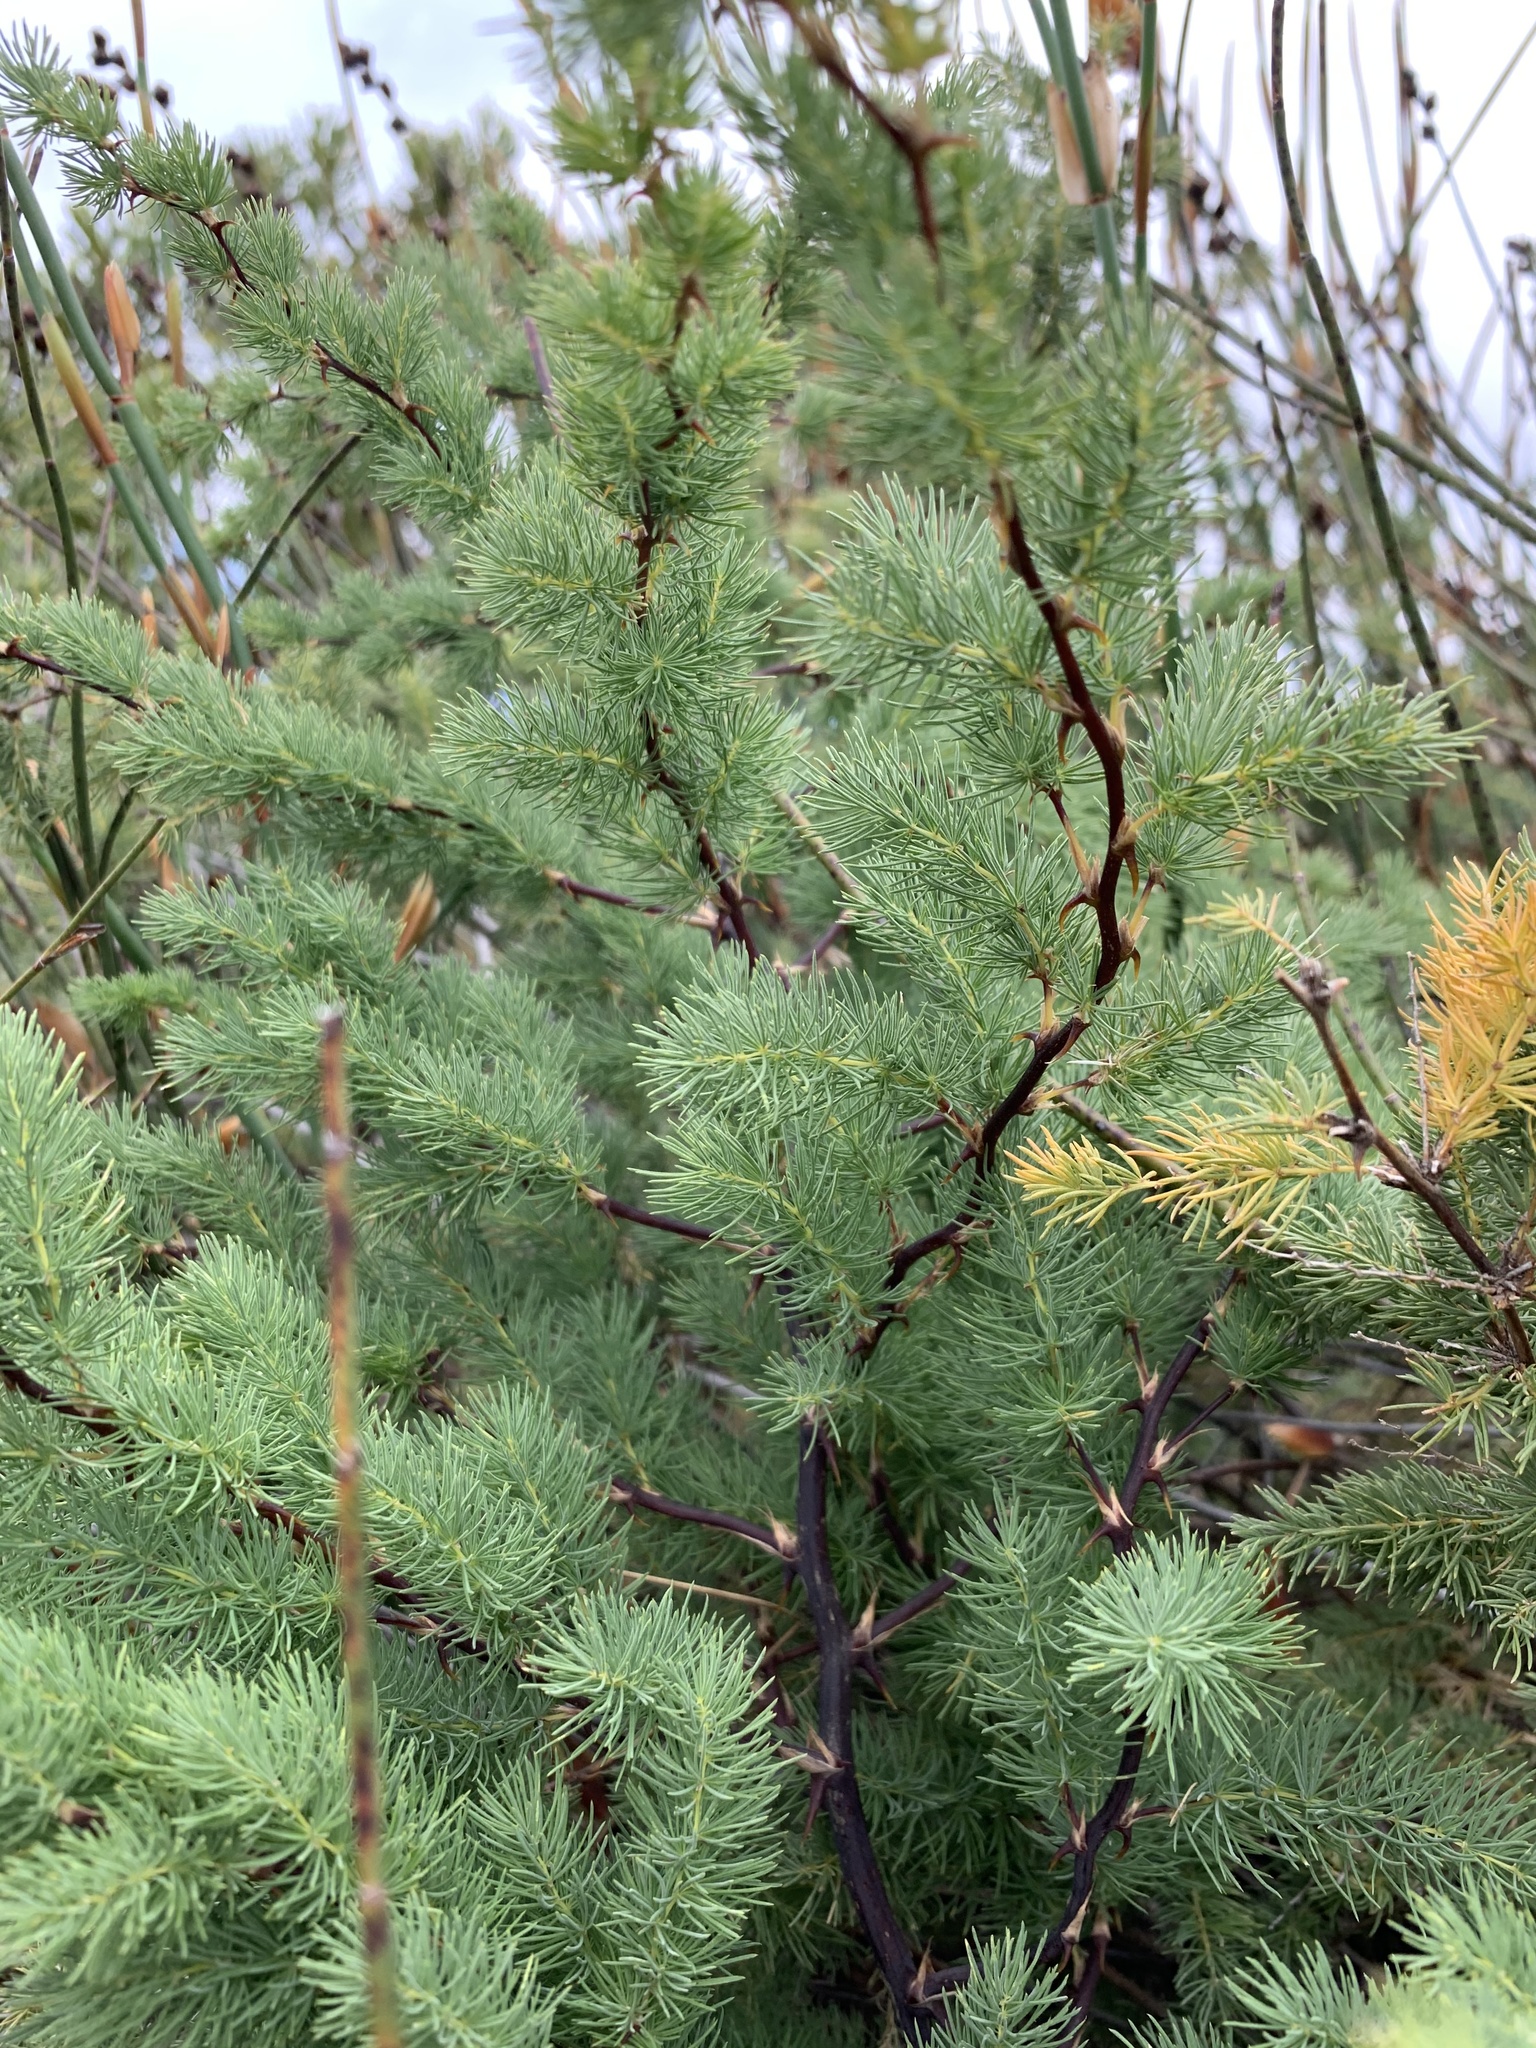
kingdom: Plantae
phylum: Tracheophyta
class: Liliopsida
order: Asparagales
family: Asparagaceae
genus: Asparagus
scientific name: Asparagus rubicundus
